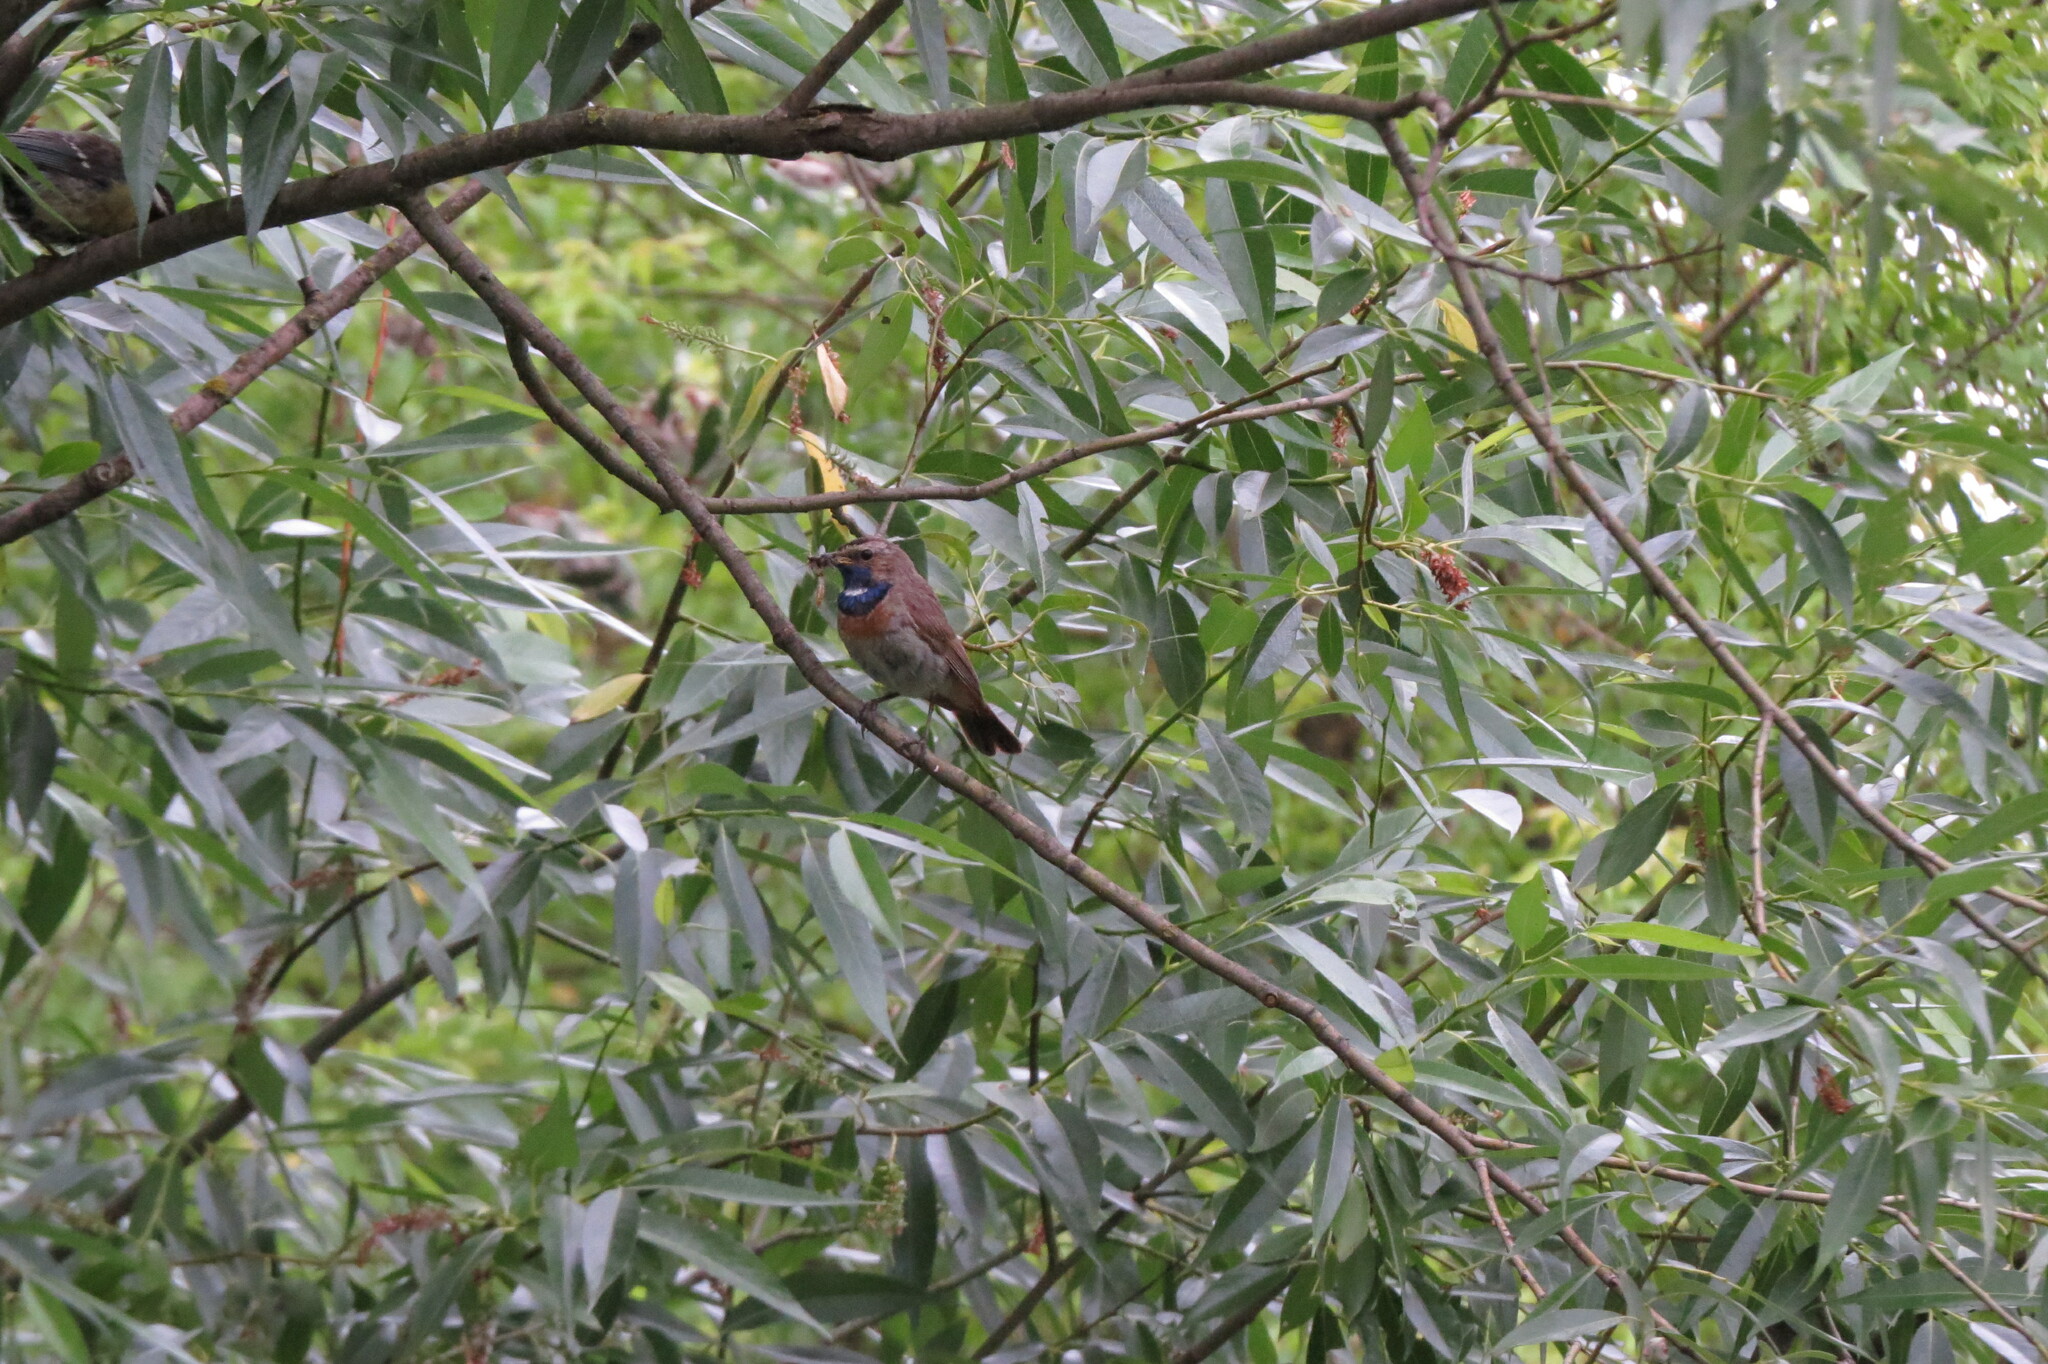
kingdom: Animalia
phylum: Chordata
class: Aves
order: Passeriformes
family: Muscicapidae
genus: Luscinia
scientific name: Luscinia svecica
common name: Bluethroat
